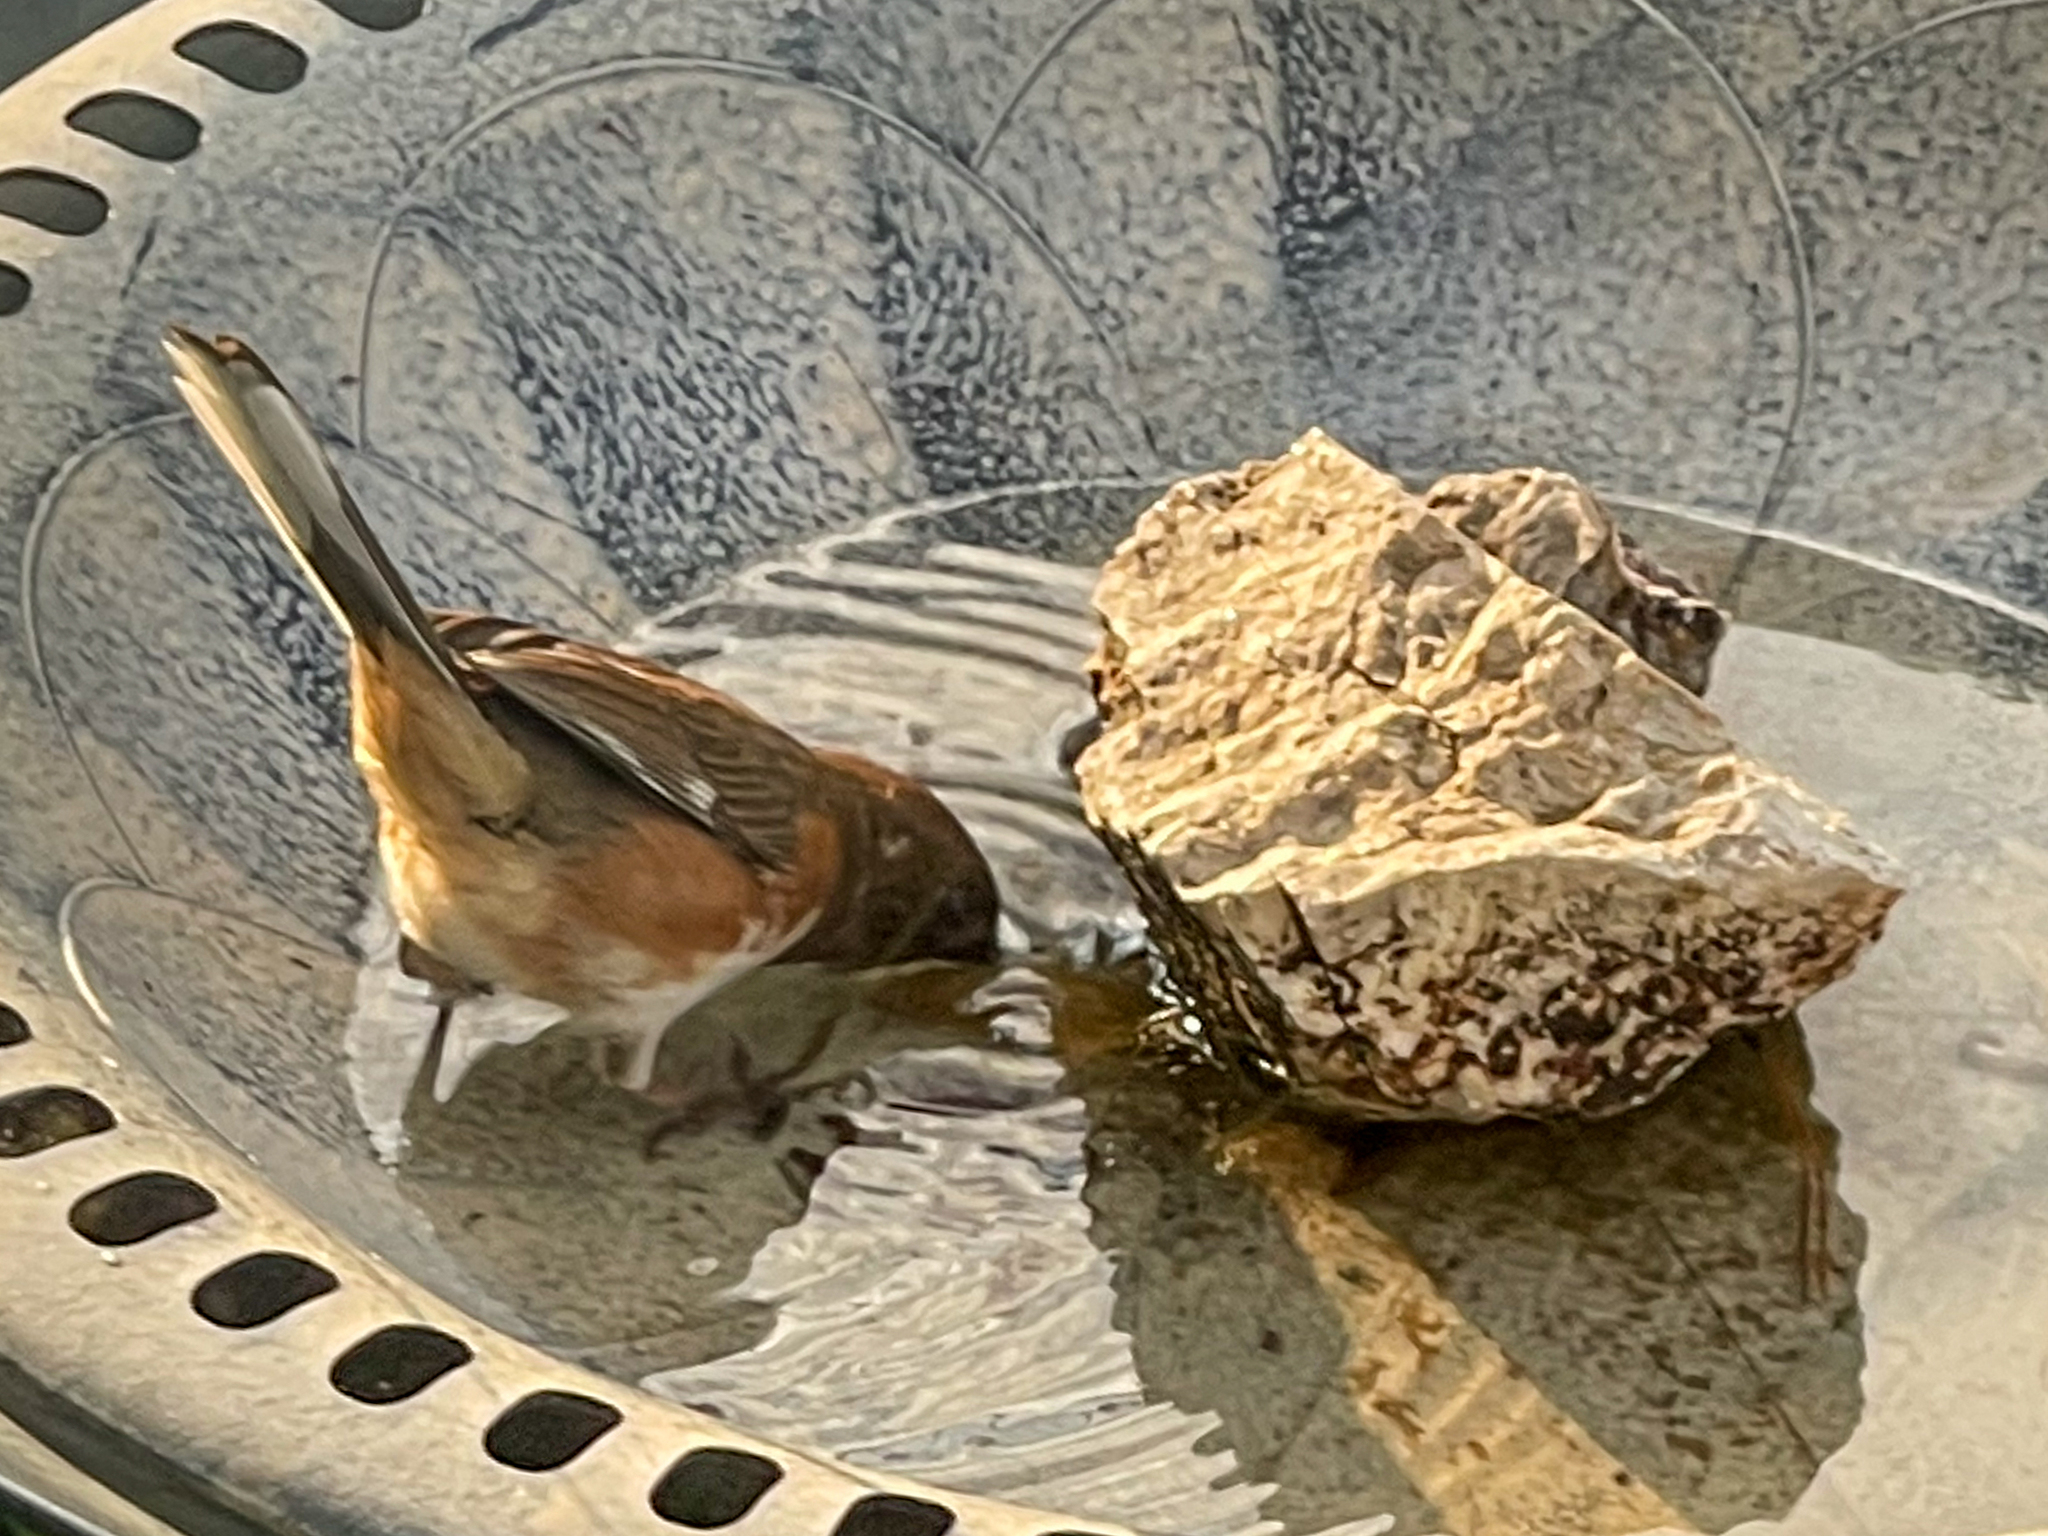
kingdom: Animalia
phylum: Chordata
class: Aves
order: Passeriformes
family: Passerellidae
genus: Pipilo
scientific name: Pipilo erythrophthalmus
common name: Eastern towhee
